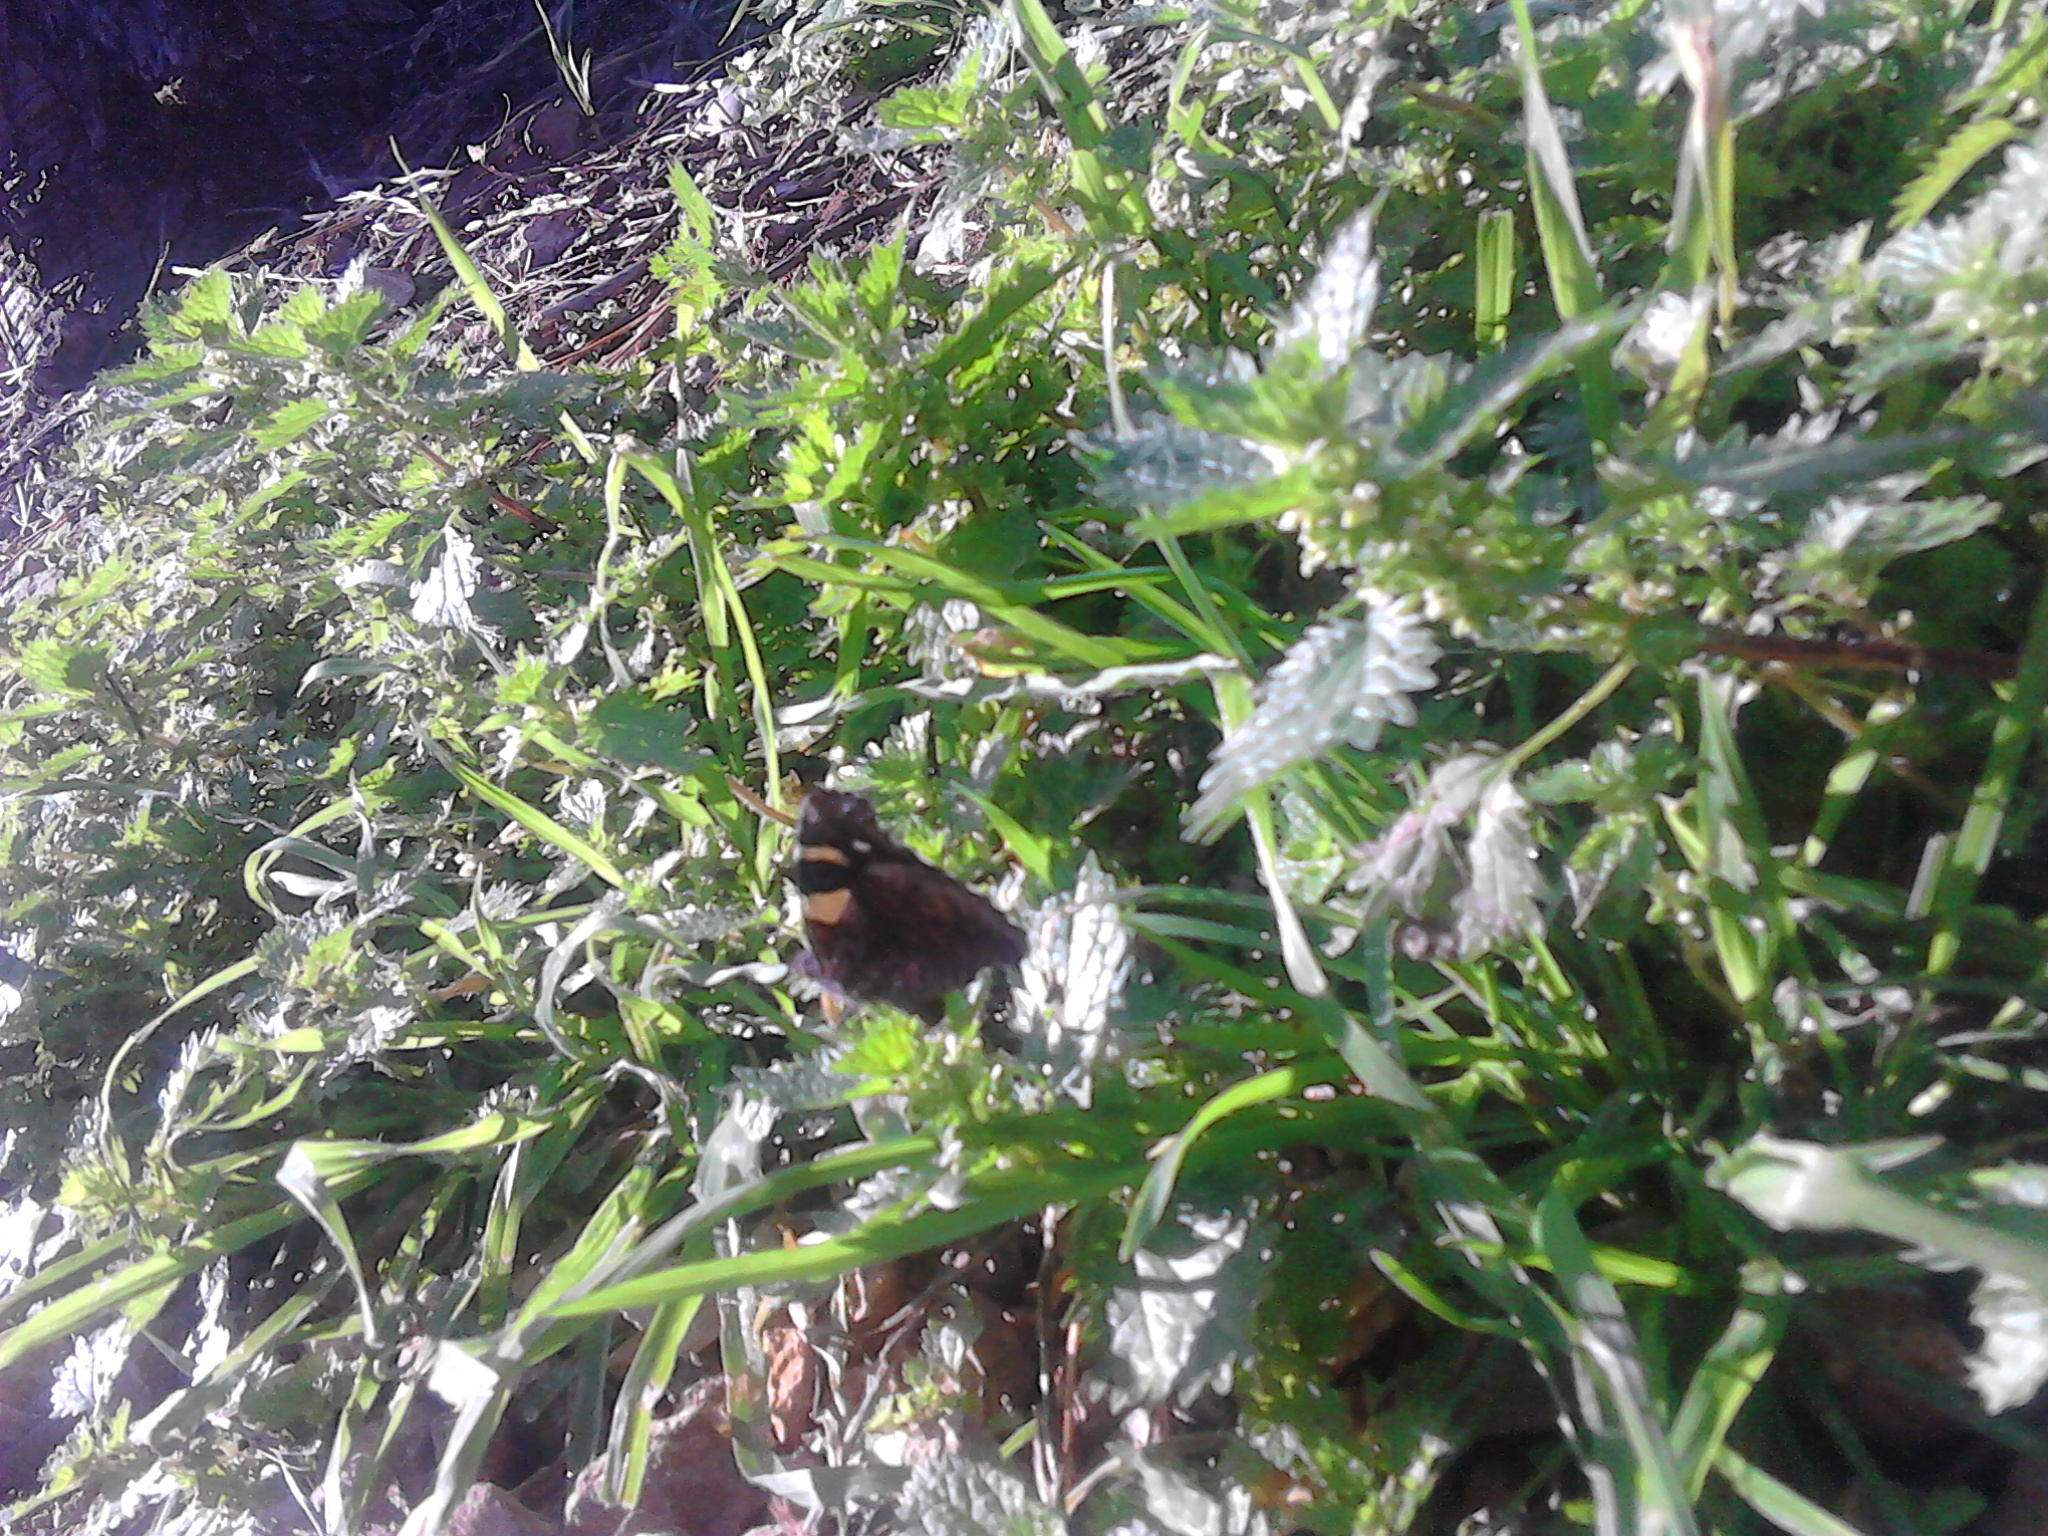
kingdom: Animalia
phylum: Arthropoda
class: Insecta
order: Lepidoptera
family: Nymphalidae
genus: Vanessa
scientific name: Vanessa itea
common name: Yellow admiral
